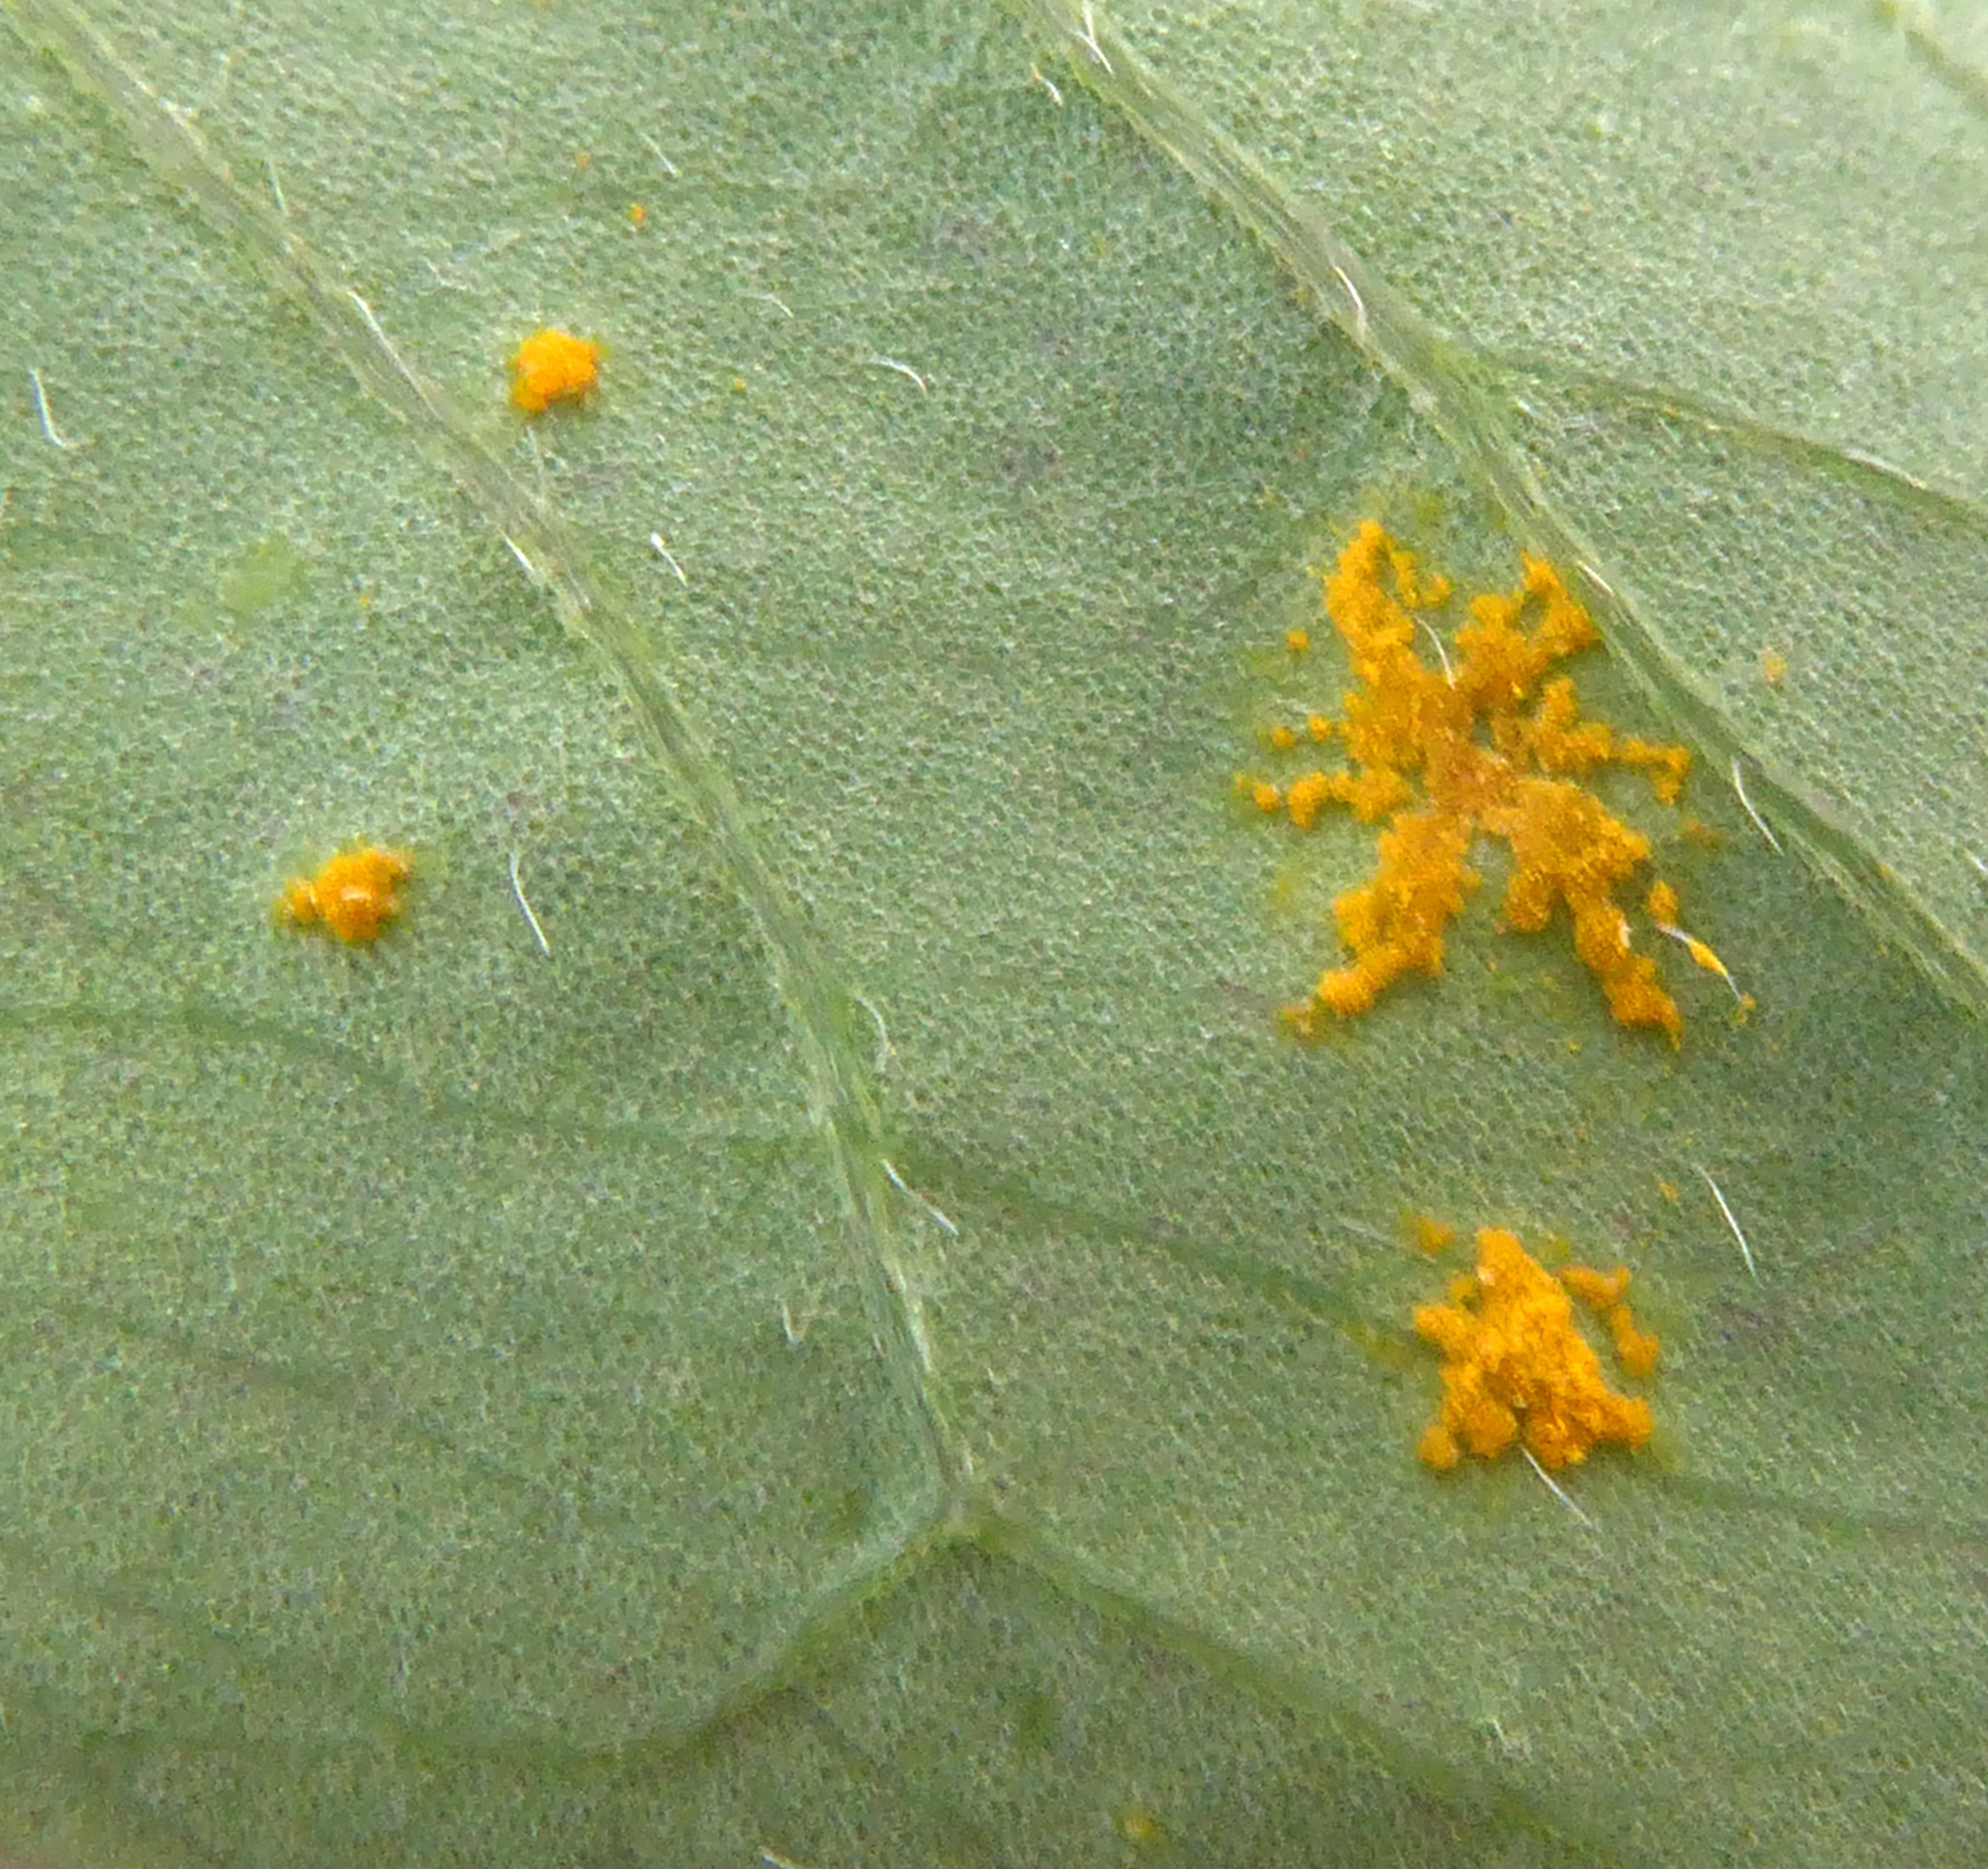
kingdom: Fungi
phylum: Basidiomycota
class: Pucciniomycetes
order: Pucciniales
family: Pucciniaceae
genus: Puccinia
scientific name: Puccinia oxalidis
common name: Oxalis rust
